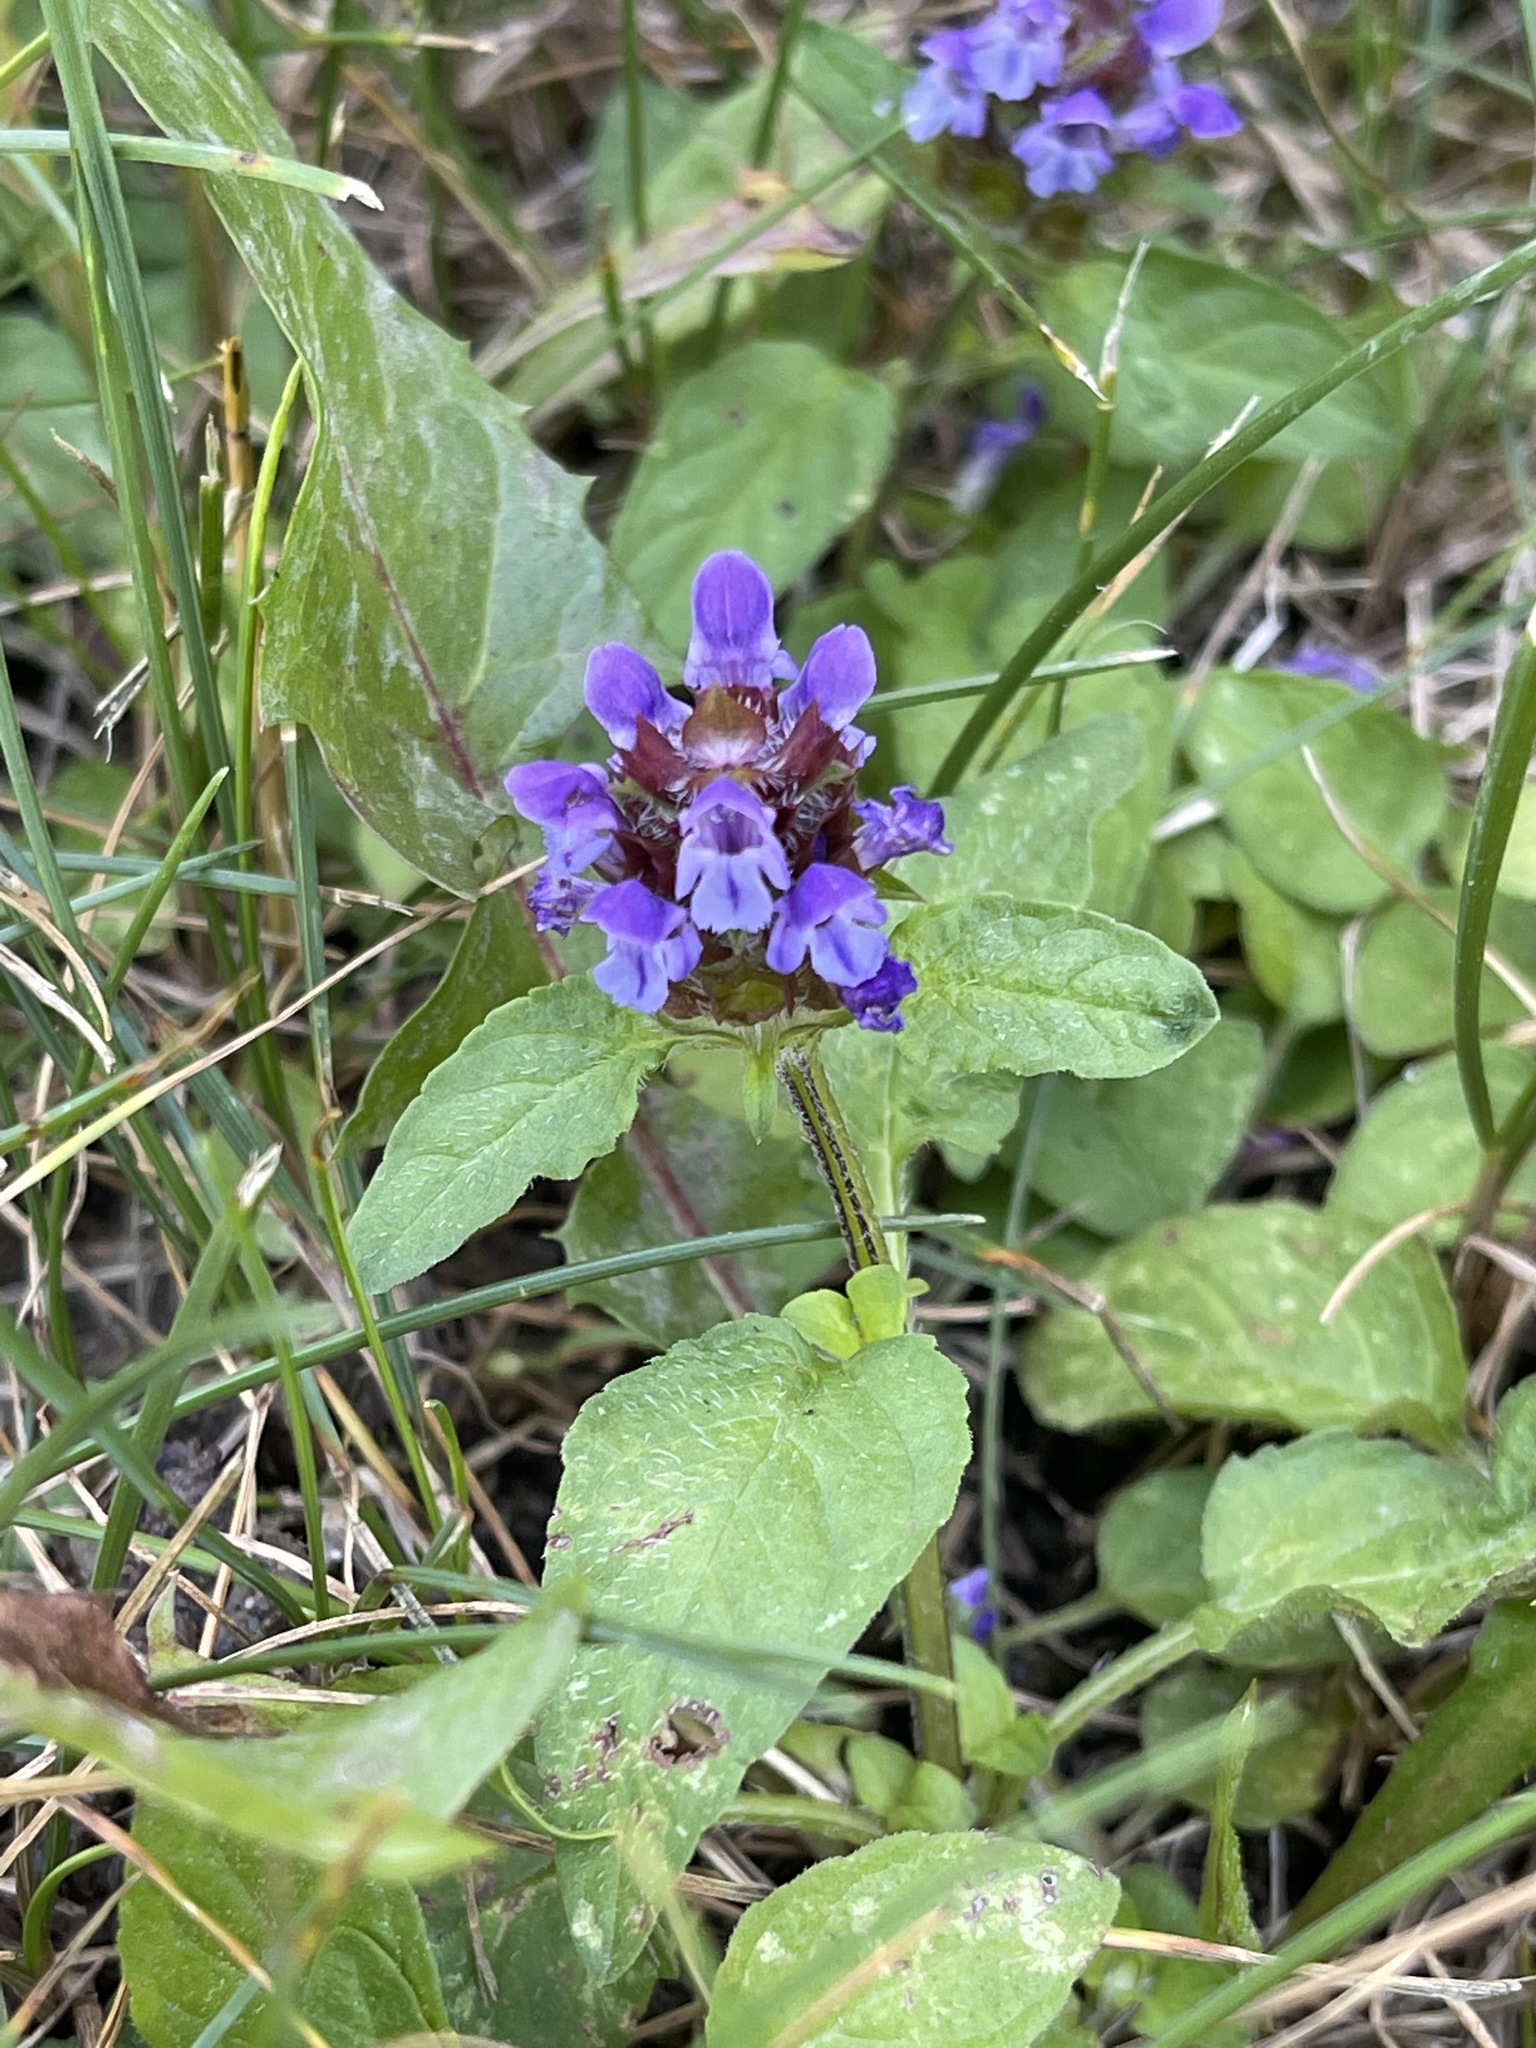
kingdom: Plantae
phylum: Tracheophyta
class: Magnoliopsida
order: Lamiales
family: Lamiaceae
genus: Prunella
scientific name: Prunella vulgaris
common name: Heal-all
